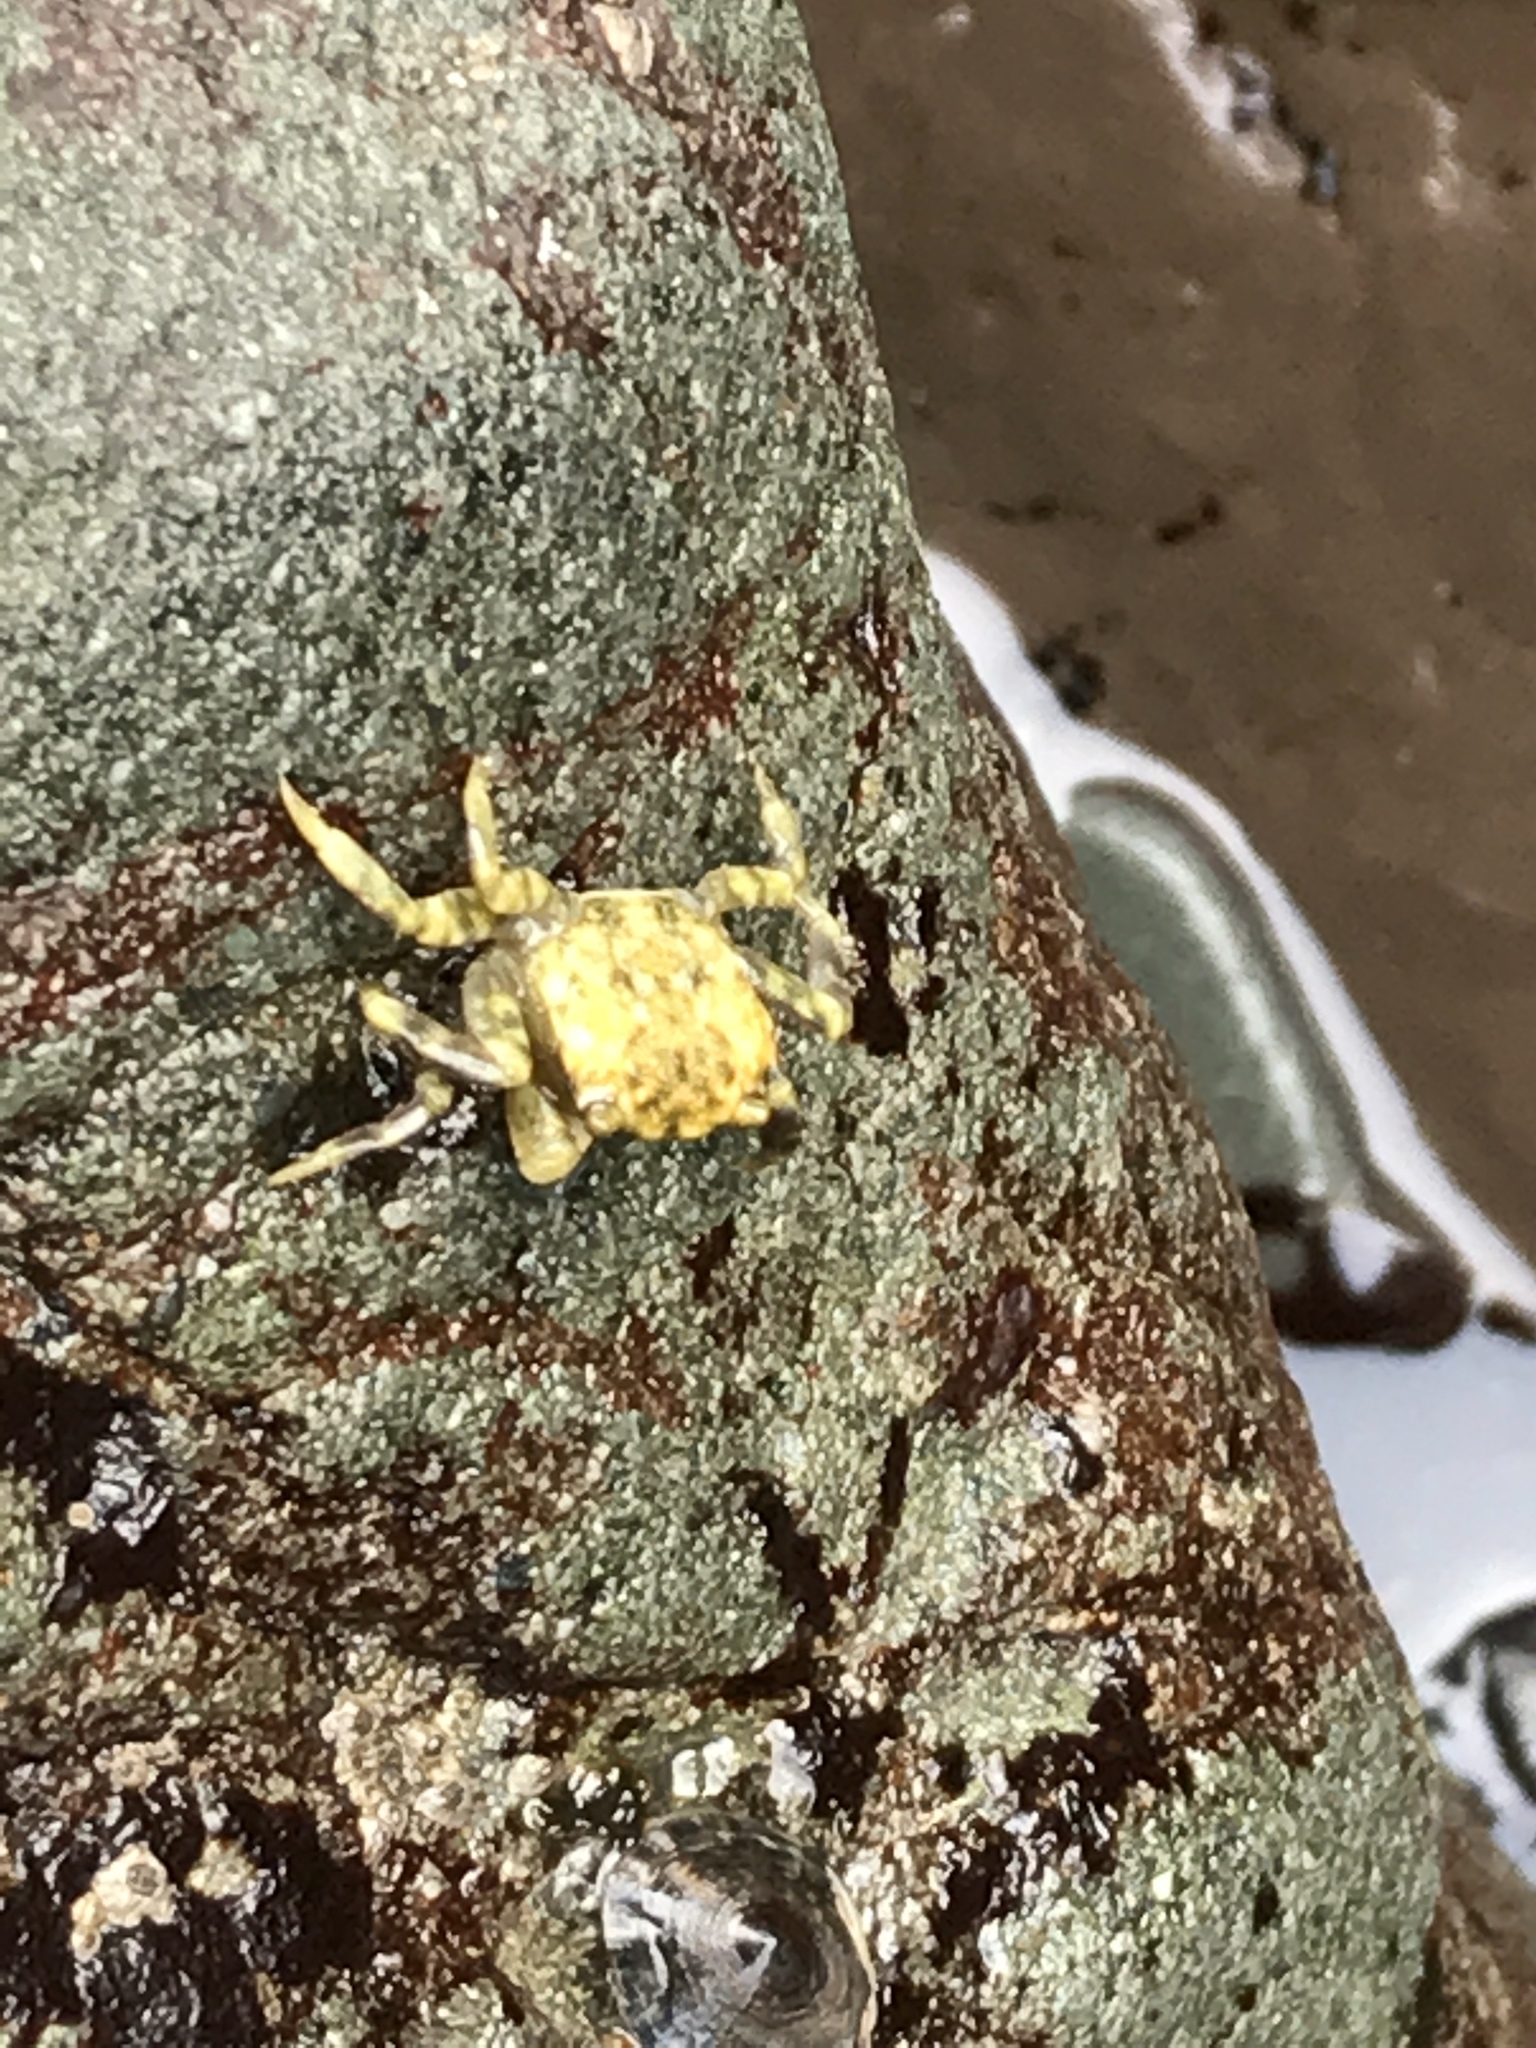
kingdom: Animalia
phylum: Arthropoda
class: Malacostraca
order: Decapoda
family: Varunidae
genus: Hemigrapsus
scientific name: Hemigrapsus oregonensis
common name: Yellow shore crab
